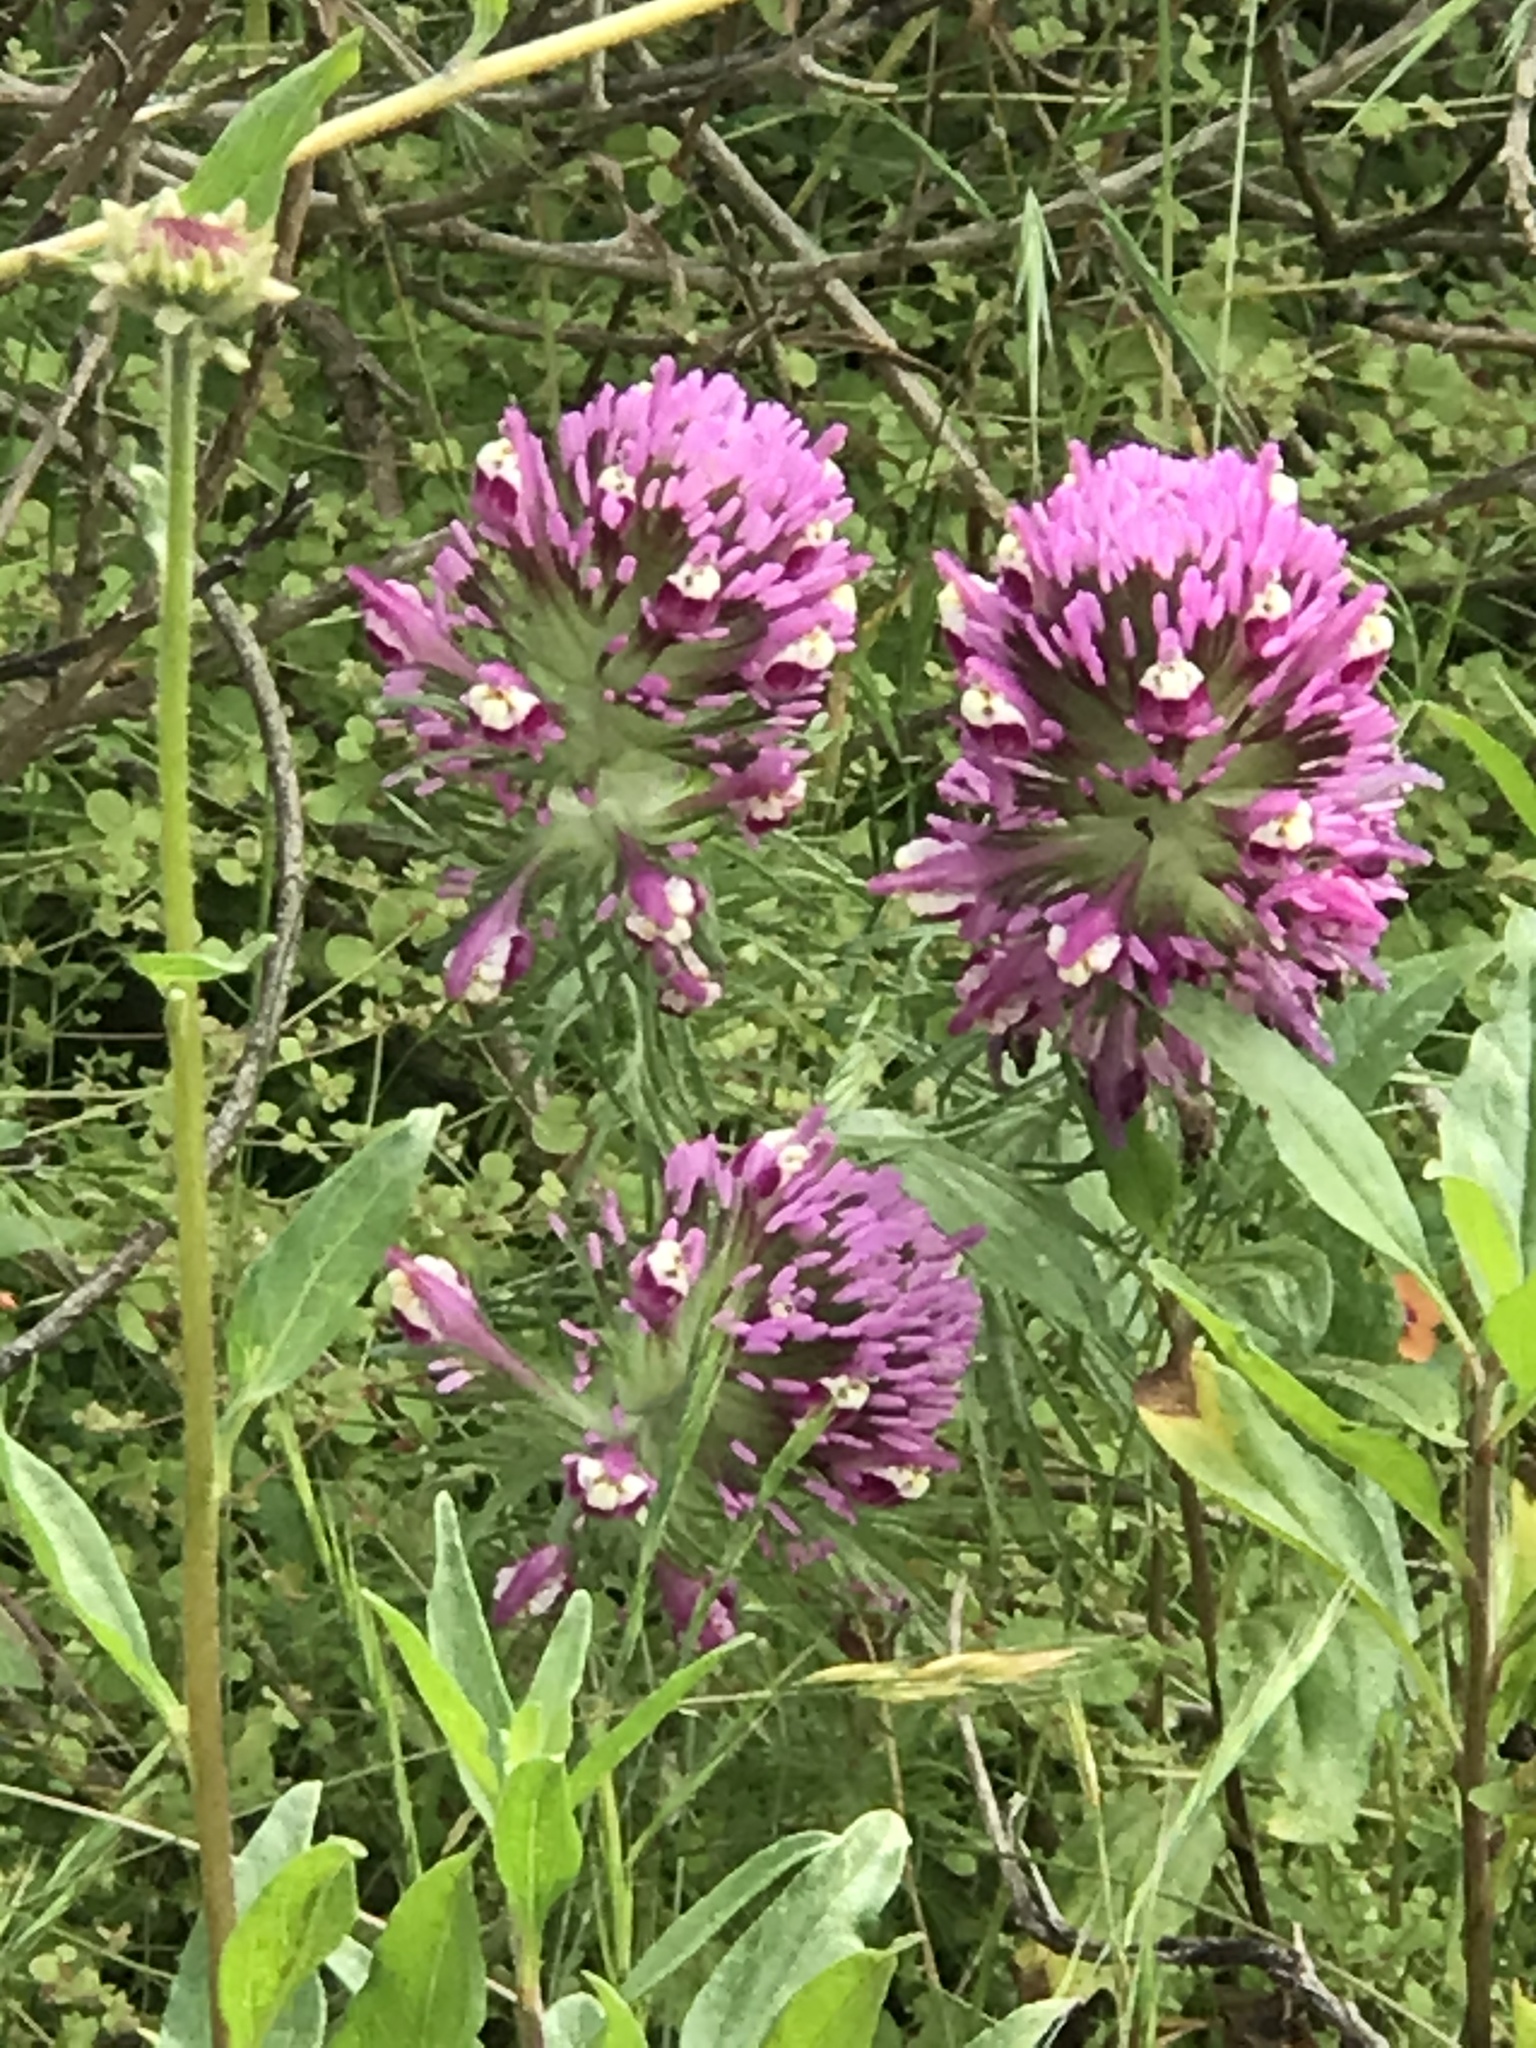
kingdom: Plantae
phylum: Tracheophyta
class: Magnoliopsida
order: Lamiales
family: Orobanchaceae
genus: Castilleja
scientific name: Castilleja exserta
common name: Purple owl-clover
